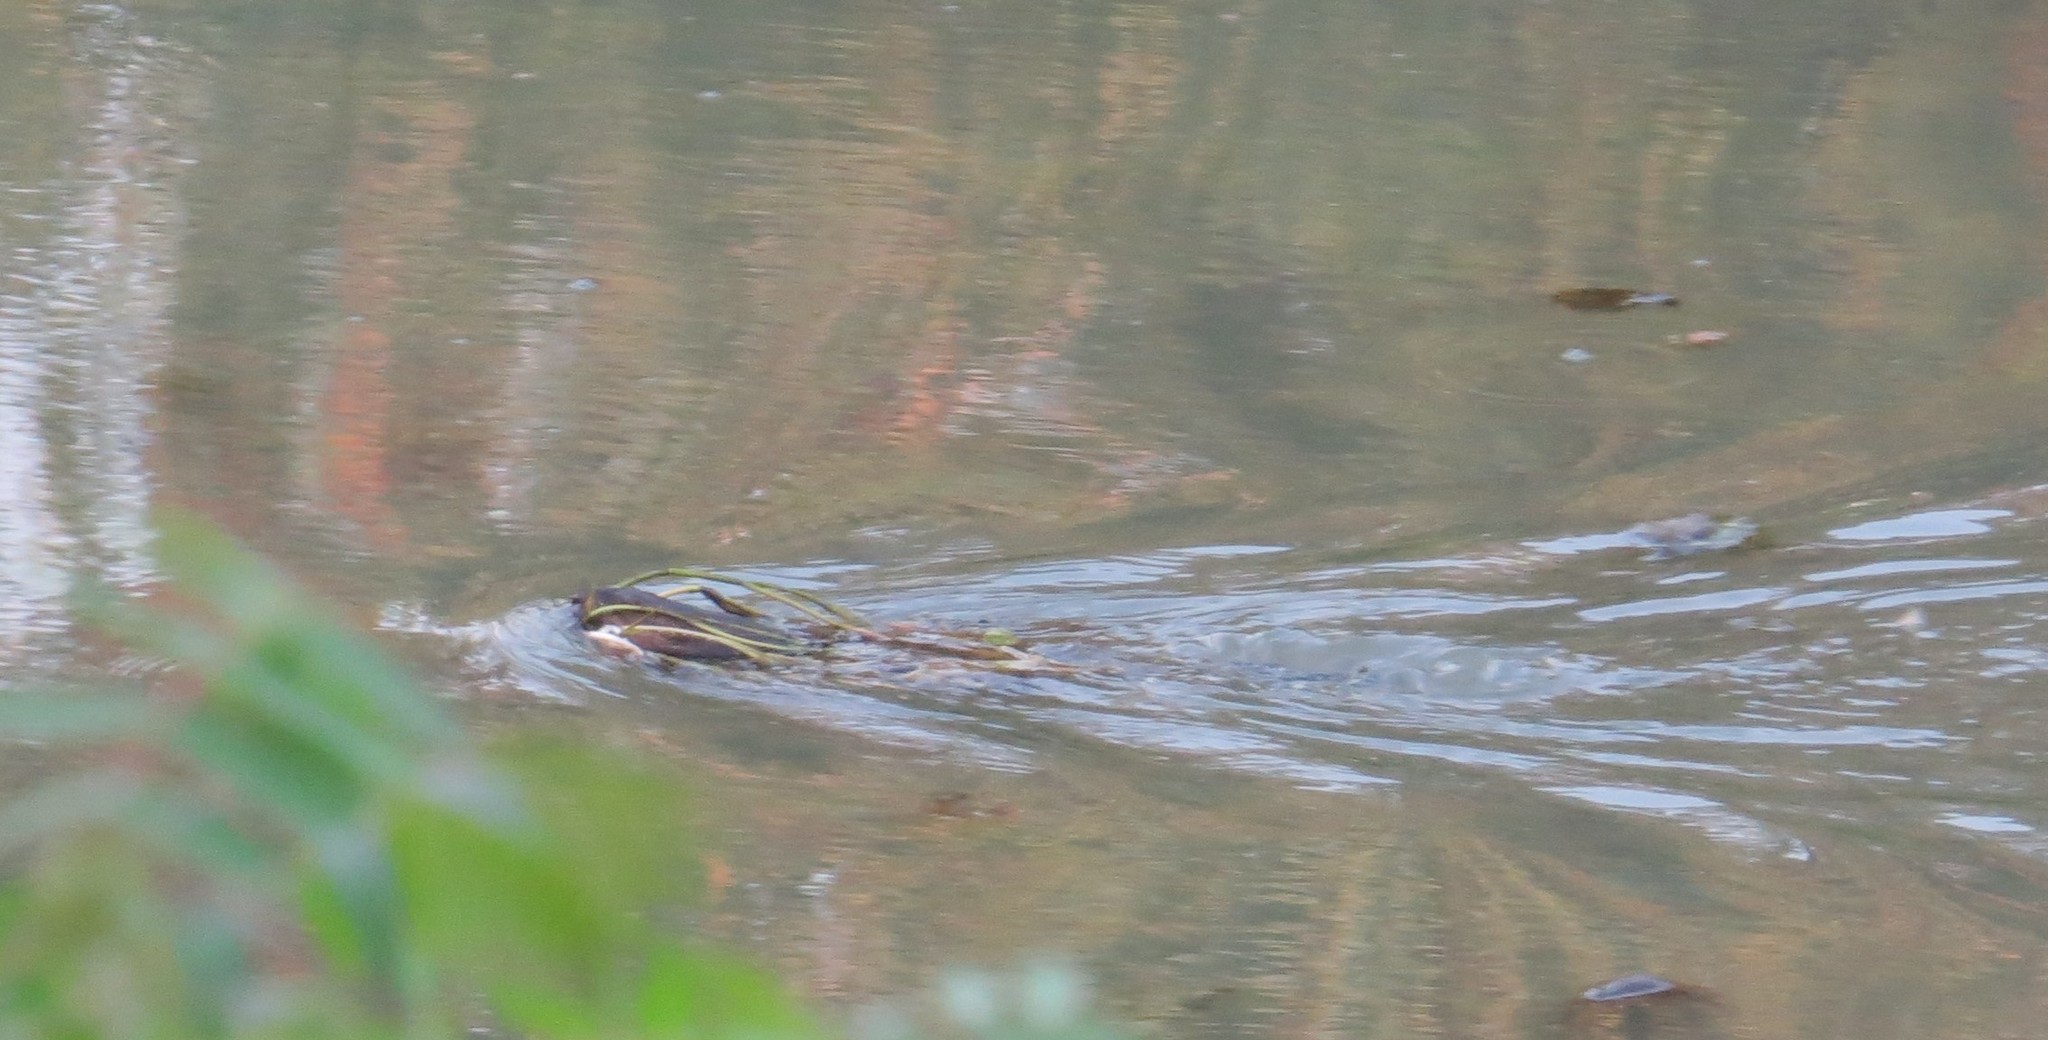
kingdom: Animalia
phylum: Chordata
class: Mammalia
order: Rodentia
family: Cricetidae
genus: Ondatra
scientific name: Ondatra zibethicus
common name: Muskrat
